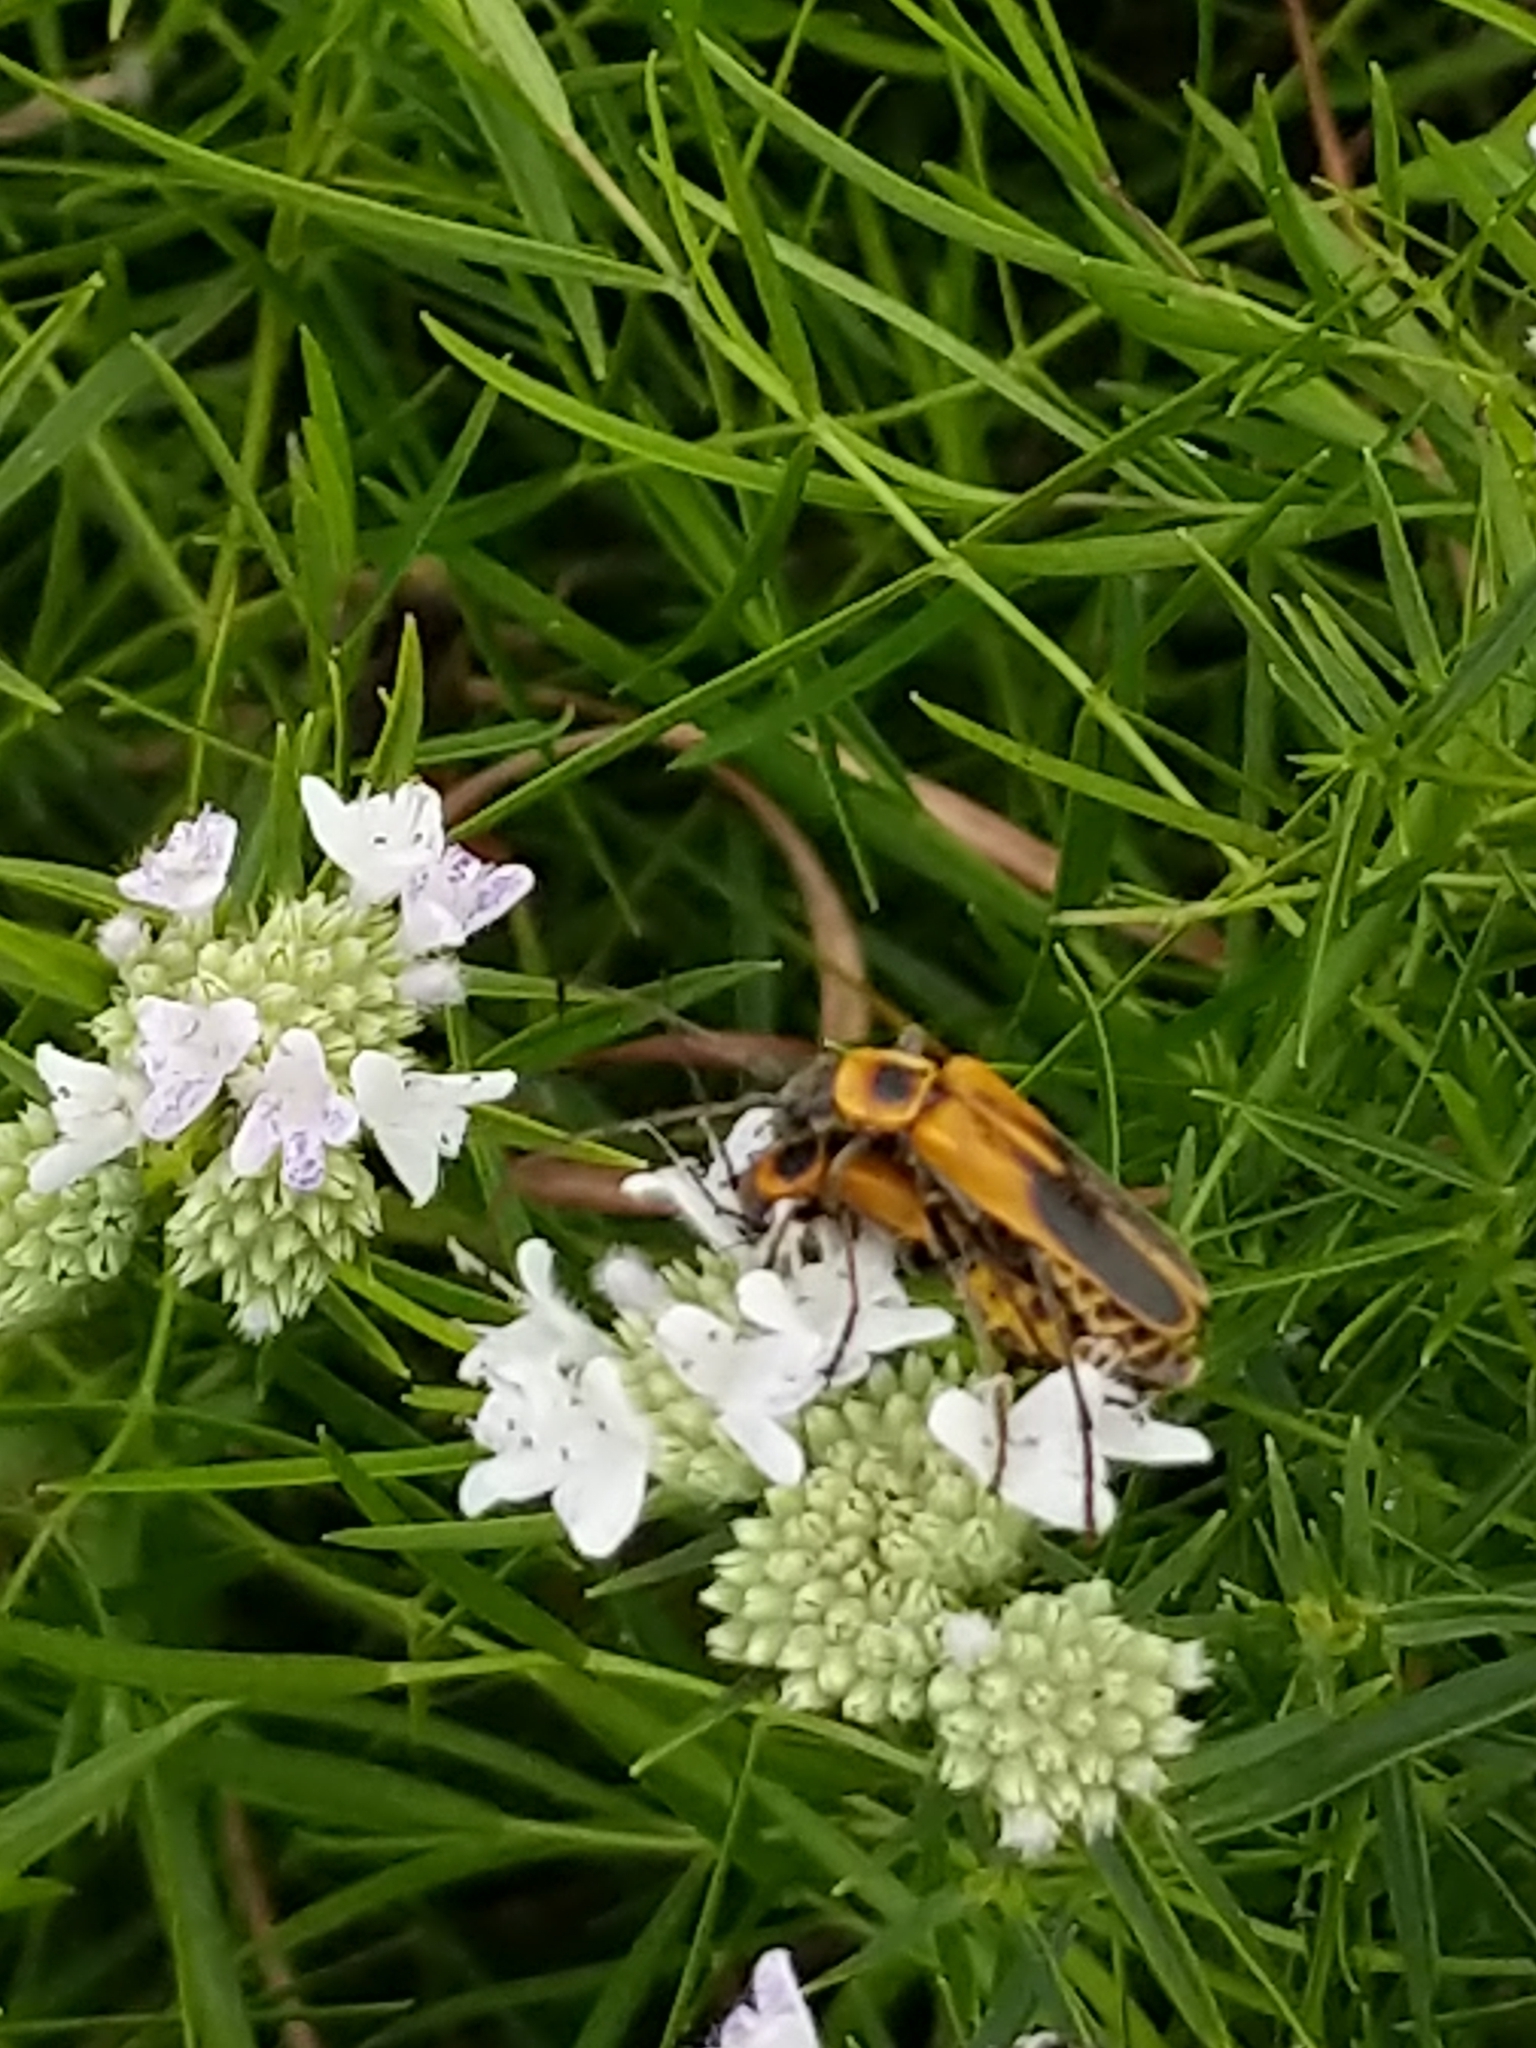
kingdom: Animalia
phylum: Arthropoda
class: Insecta
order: Coleoptera
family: Cantharidae
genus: Chauliognathus
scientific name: Chauliognathus pensylvanicus
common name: Goldenrod soldier beetle
